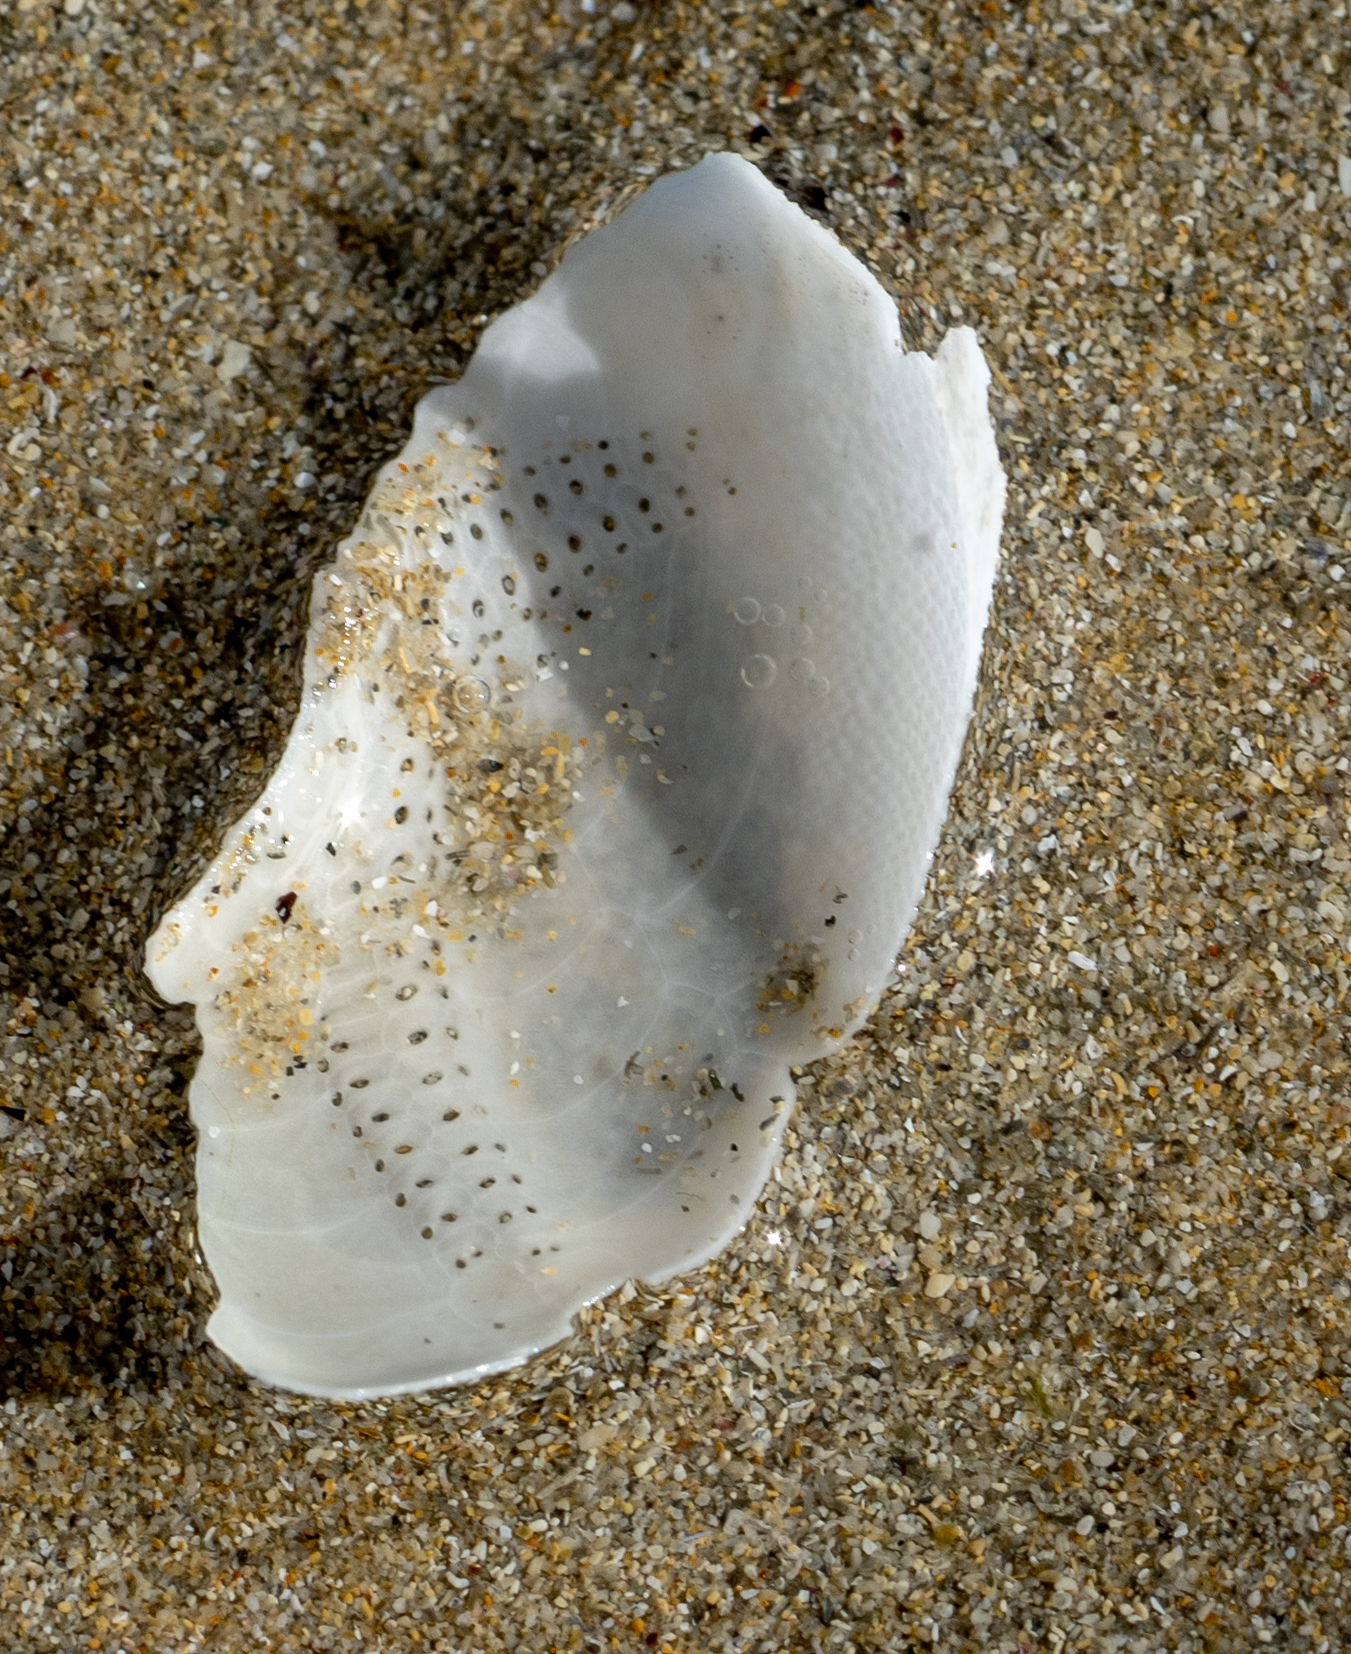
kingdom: Animalia
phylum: Echinodermata
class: Echinoidea
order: Spatangoida
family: Loveniidae
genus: Echinocardium
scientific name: Echinocardium cordatum
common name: Heart-urchin
